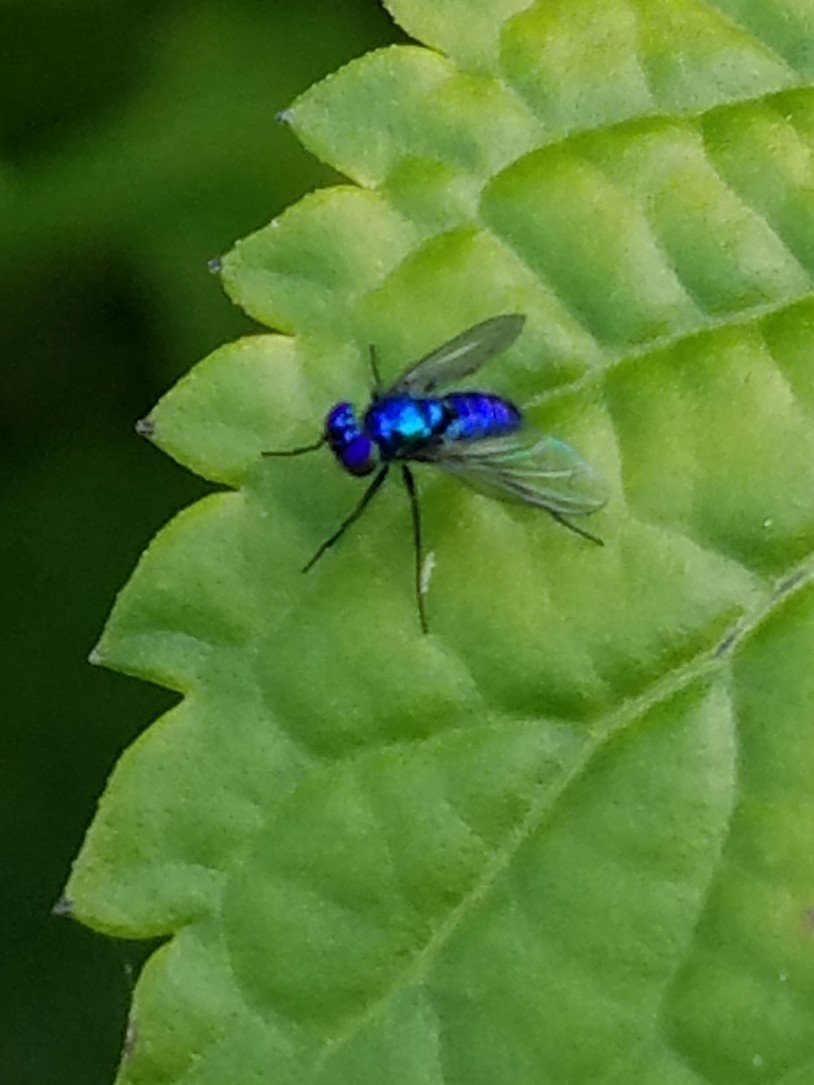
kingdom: Animalia
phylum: Arthropoda
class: Insecta
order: Diptera
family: Dolichopodidae
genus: Condylostylus
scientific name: Condylostylus mundus
